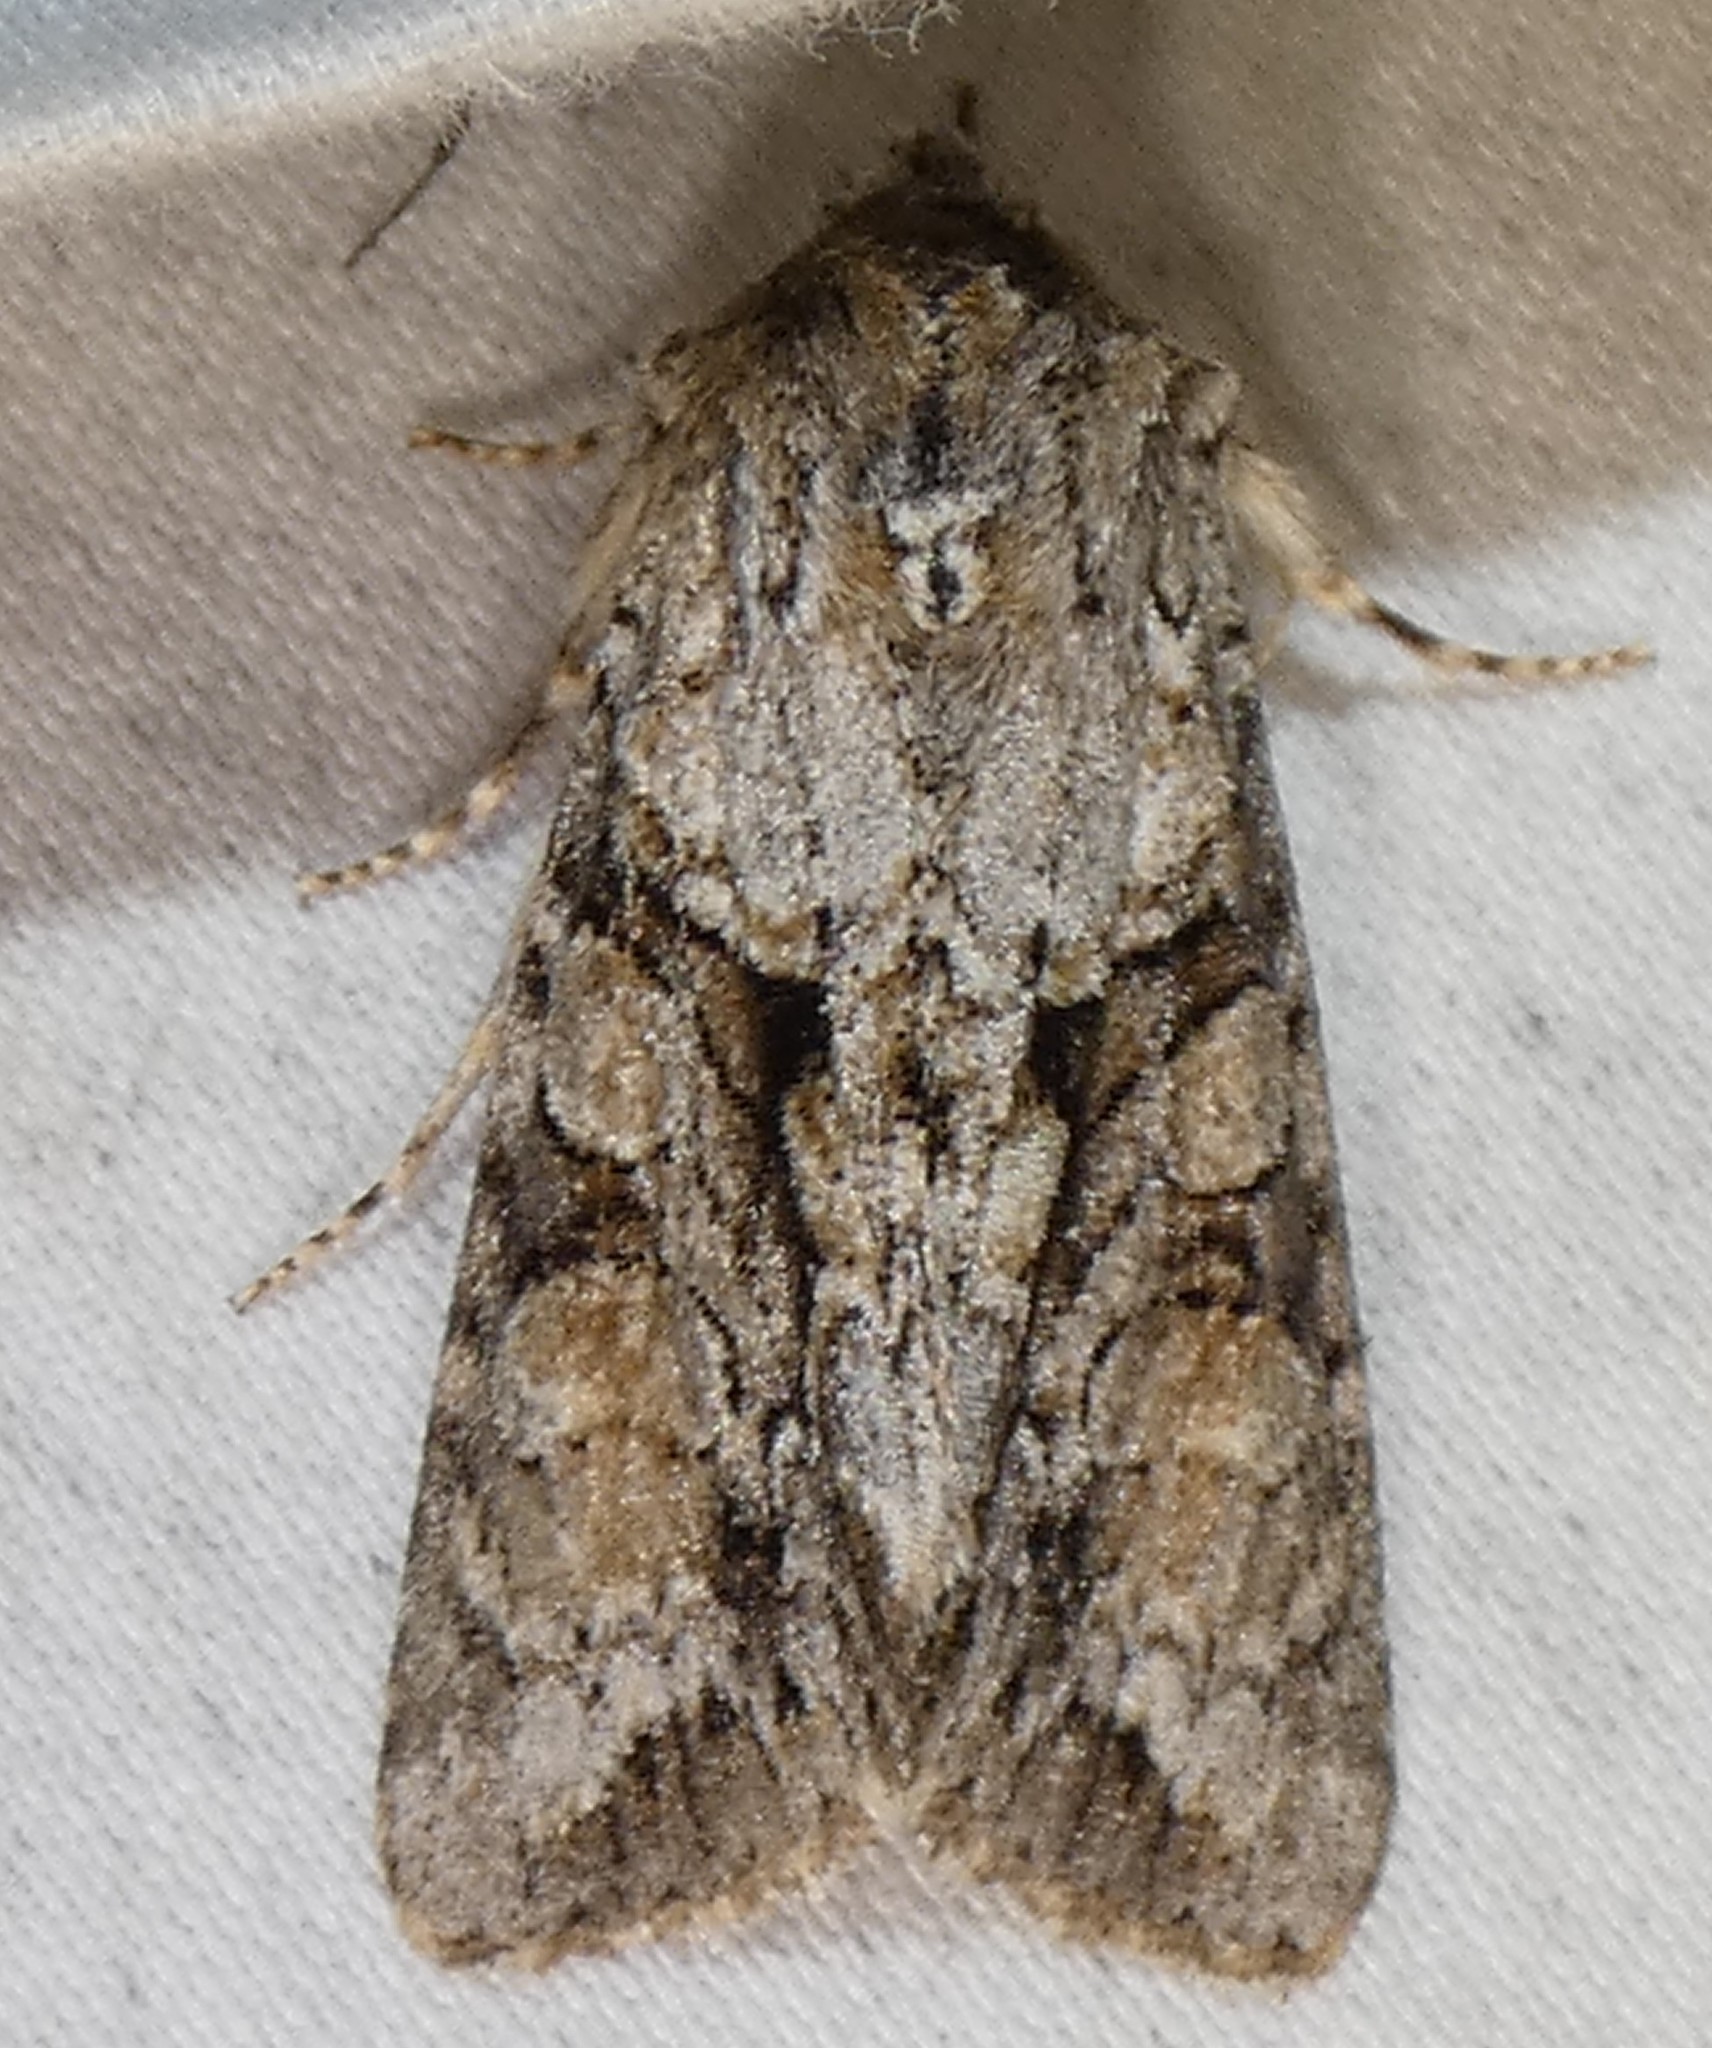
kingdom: Animalia
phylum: Arthropoda
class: Insecta
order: Lepidoptera
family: Noctuidae
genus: Achatia
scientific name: Achatia distincta
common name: Distinct quaker
